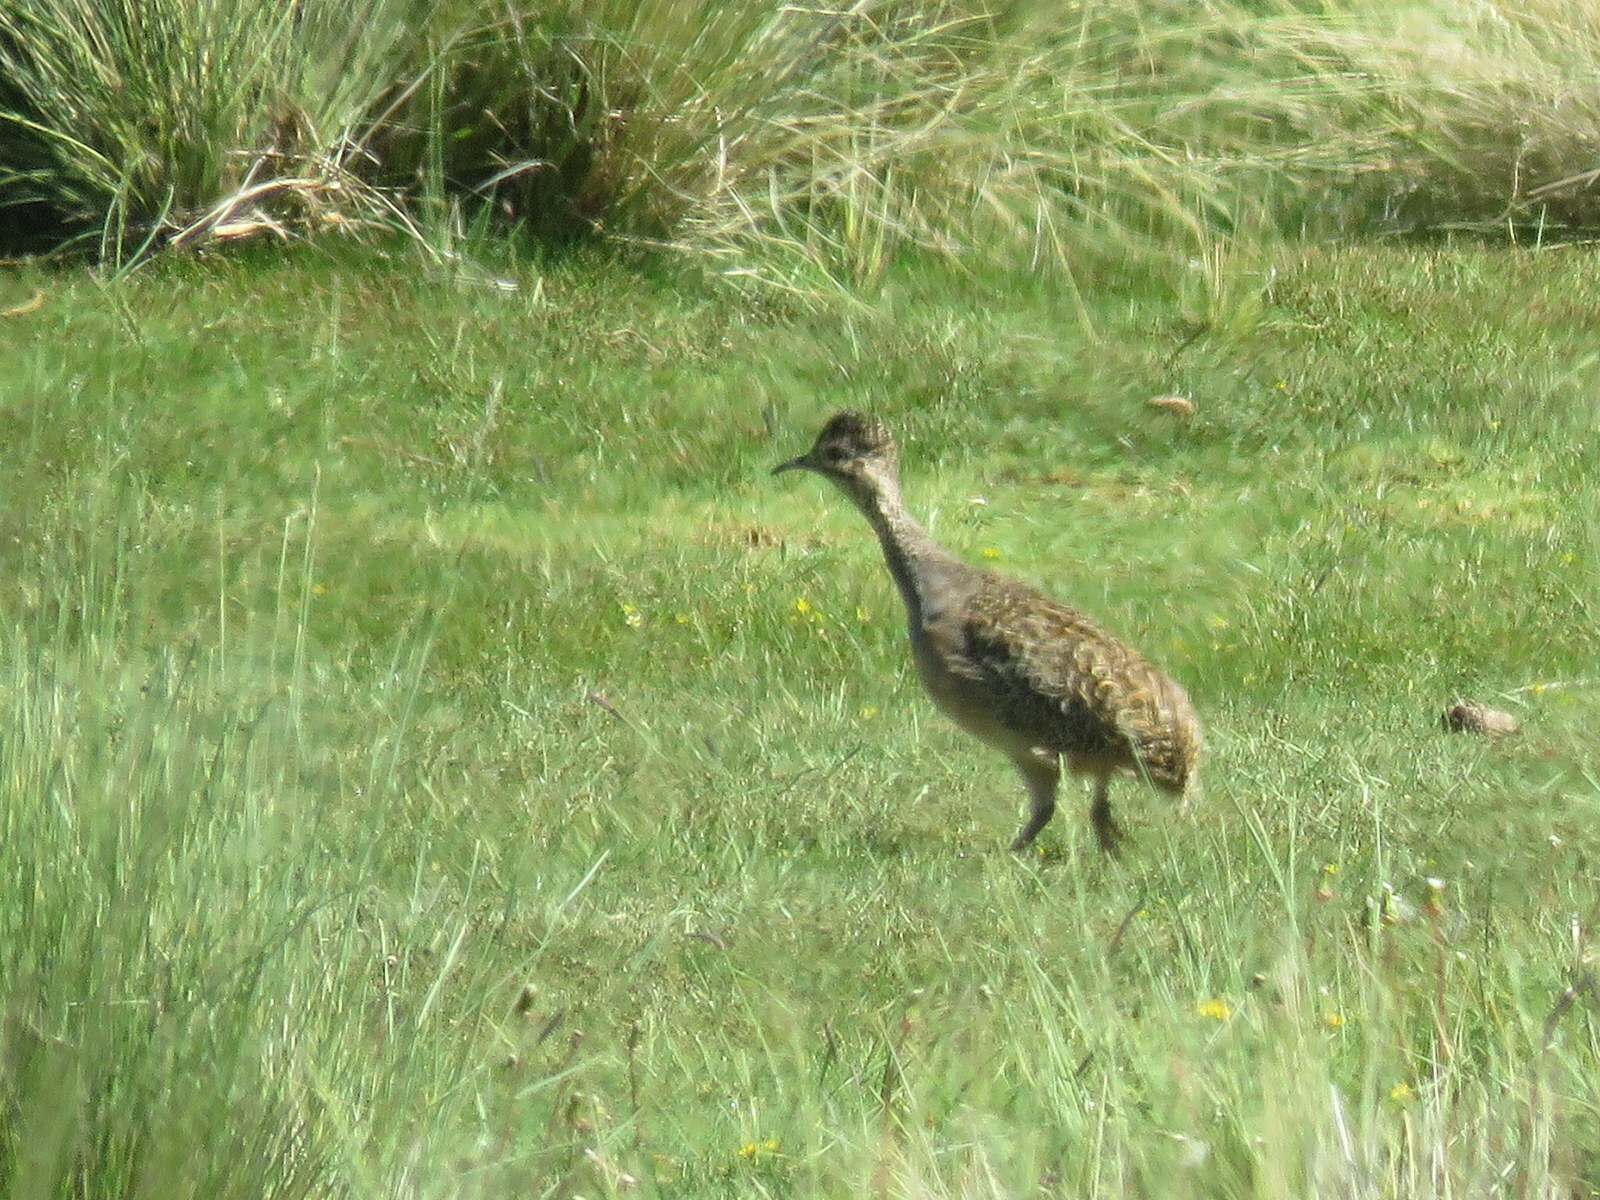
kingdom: Animalia
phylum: Chordata
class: Aves
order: Tinamiformes
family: Tinamidae
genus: Nothoprocta
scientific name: Nothoprocta ornata
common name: Ornate tinamou
